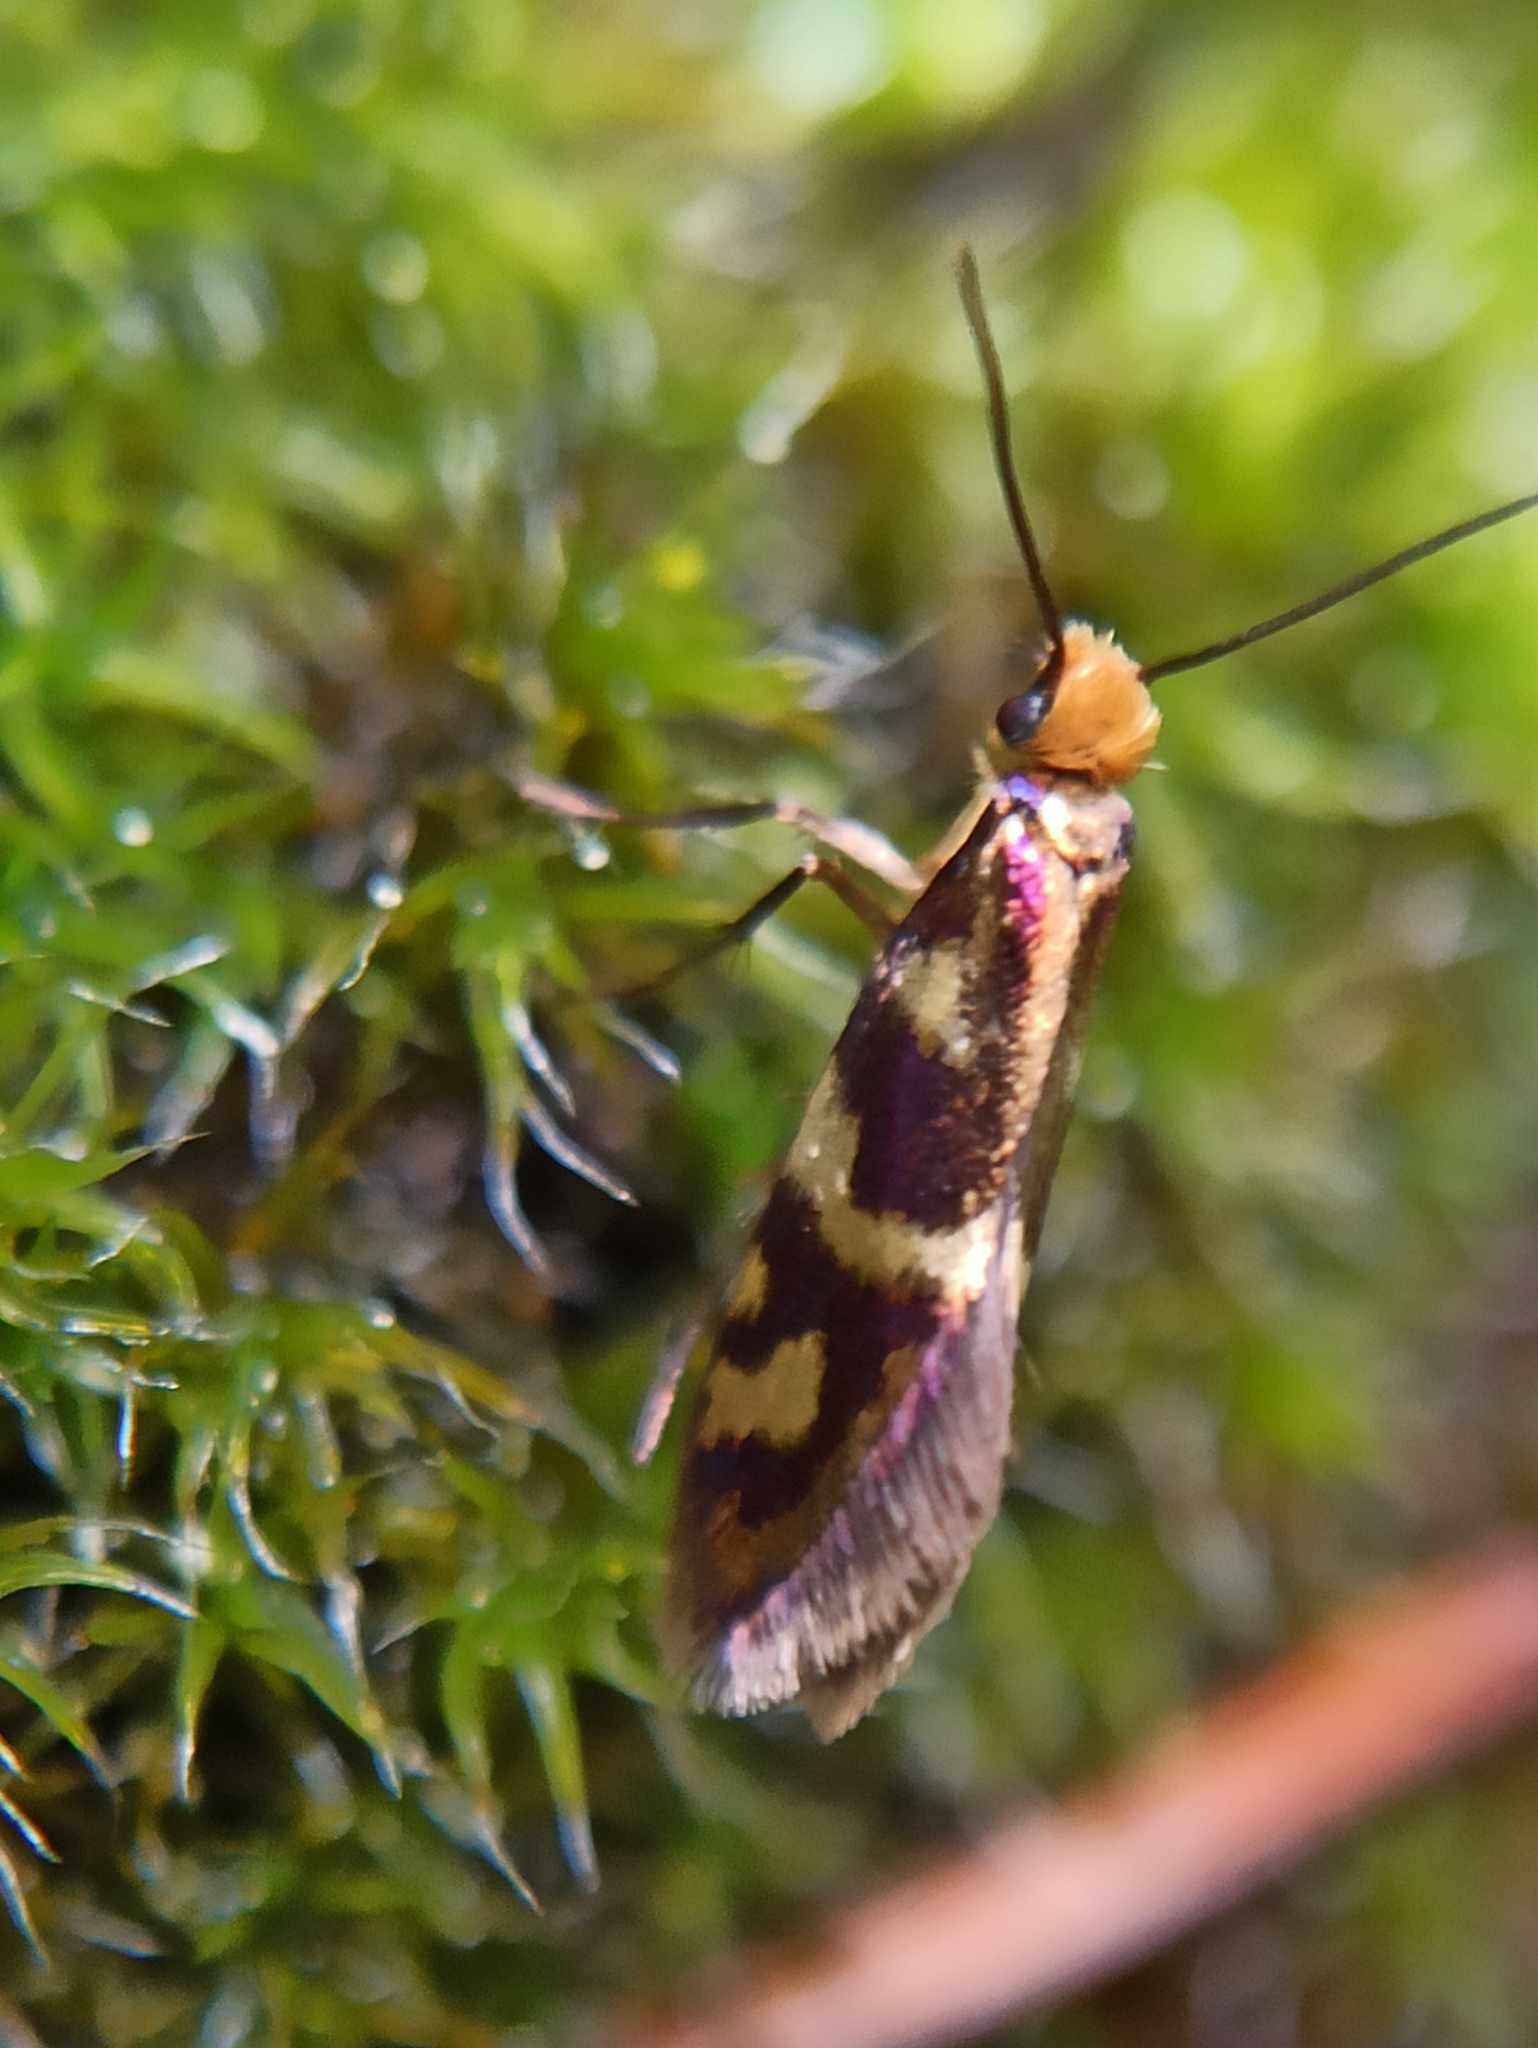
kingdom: Animalia
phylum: Arthropoda
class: Insecta
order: Lepidoptera
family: Micropterigidae
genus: Micropterix
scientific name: Micropterix schaefferi
